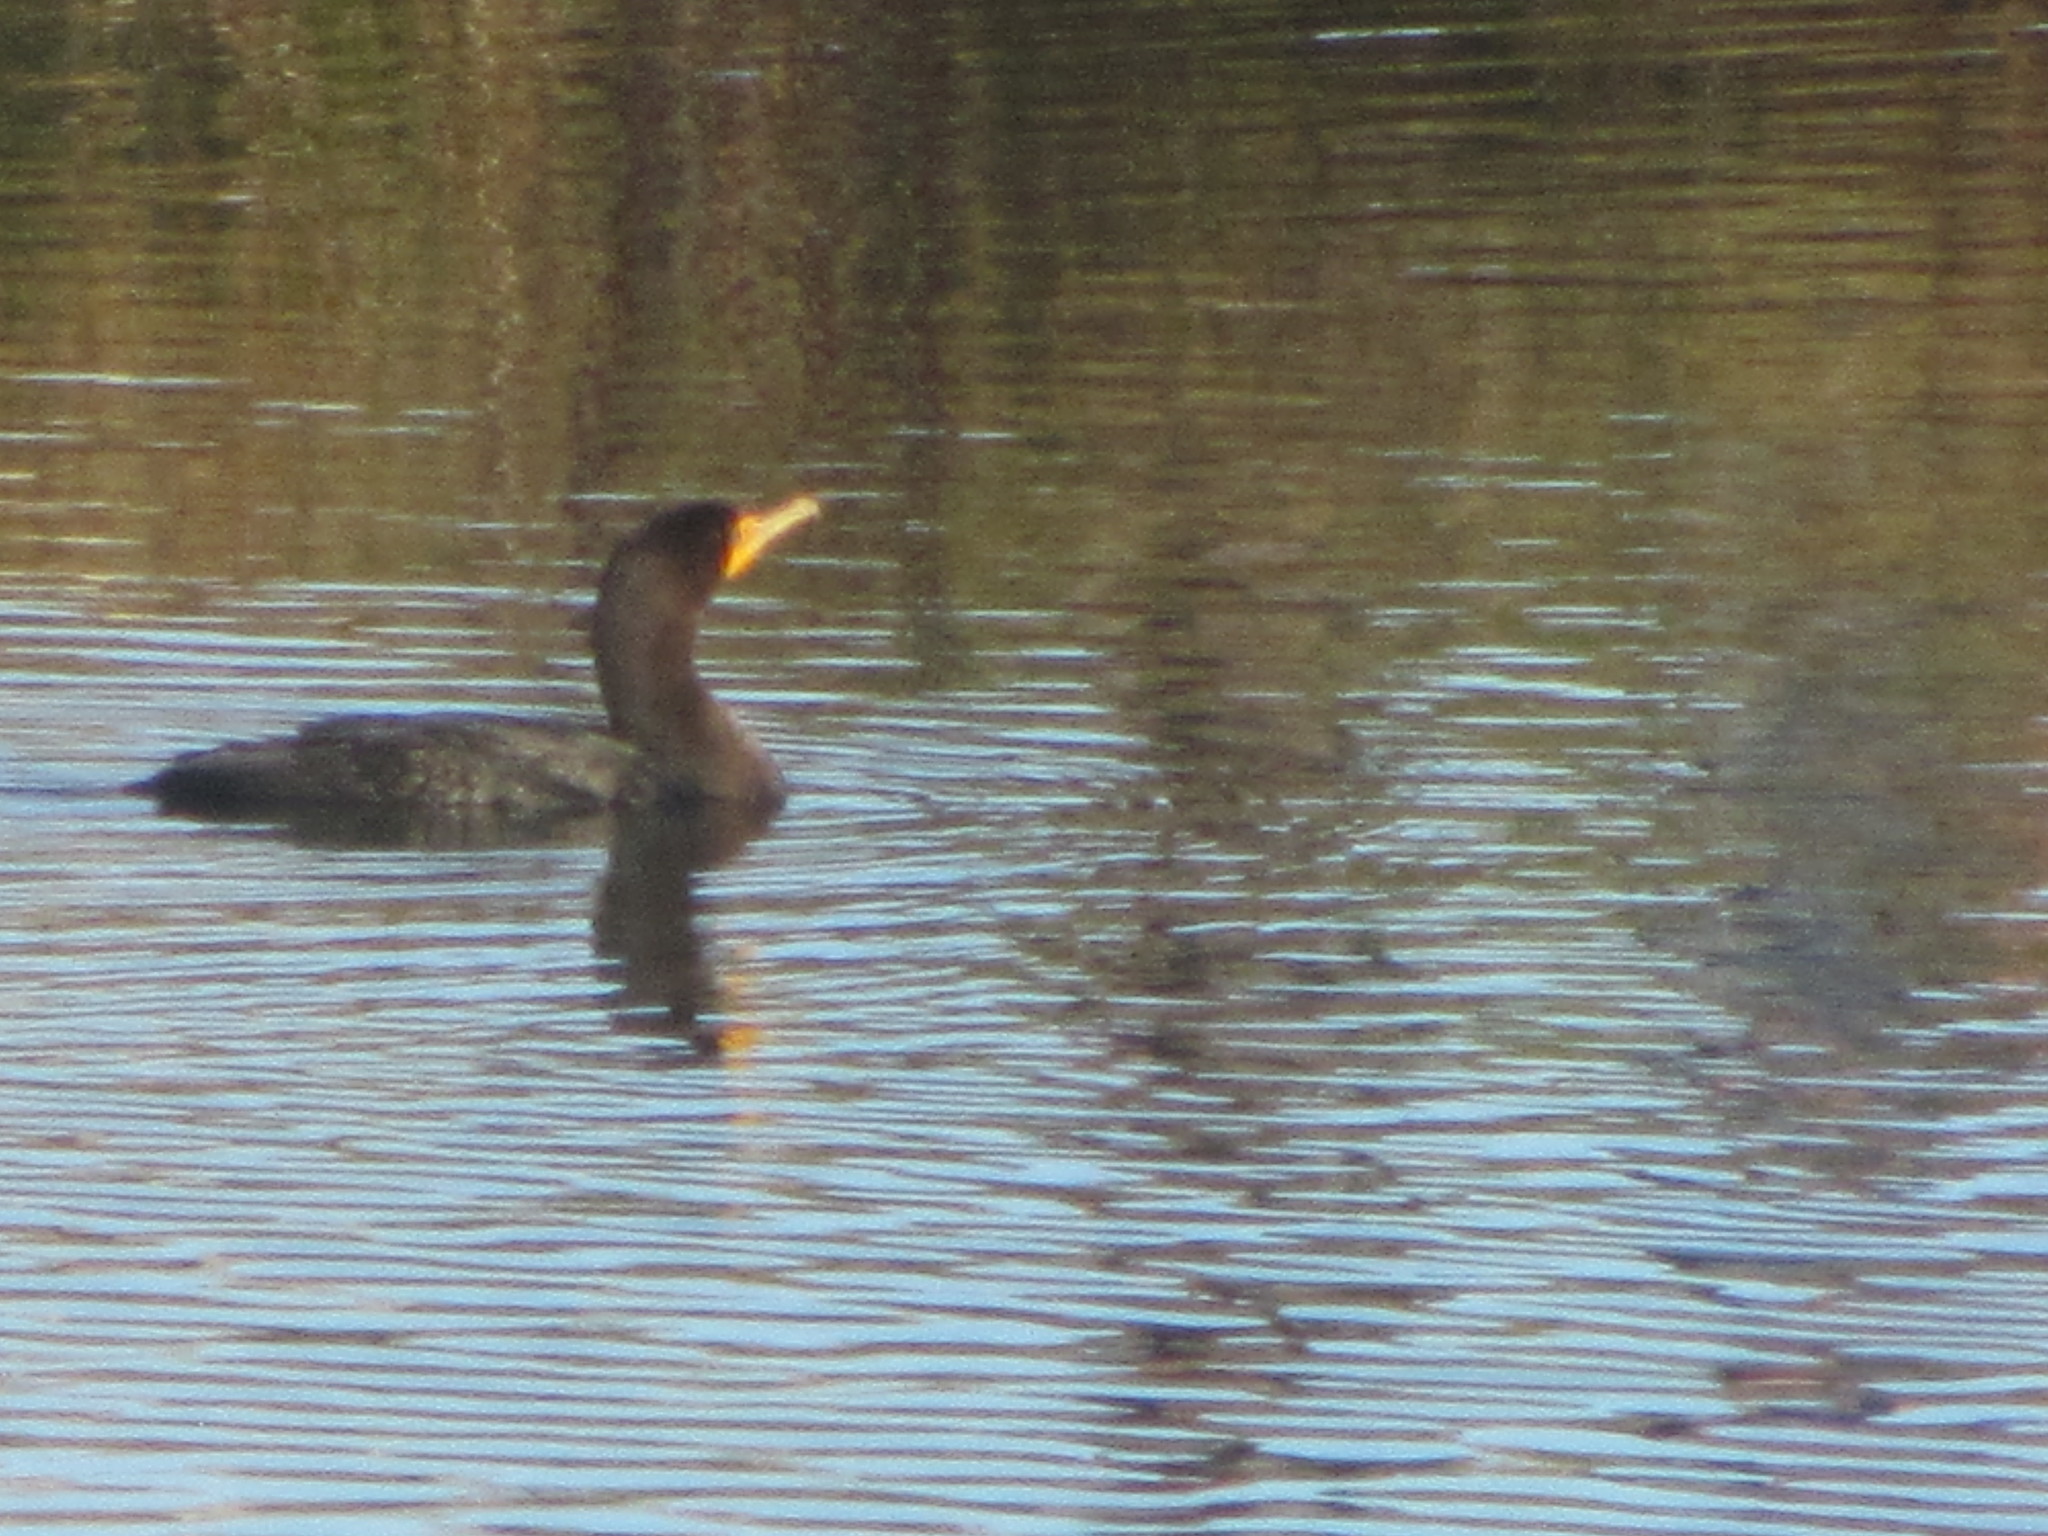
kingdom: Animalia
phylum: Chordata
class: Aves
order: Suliformes
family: Phalacrocoracidae
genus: Phalacrocorax
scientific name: Phalacrocorax auritus
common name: Double-crested cormorant
